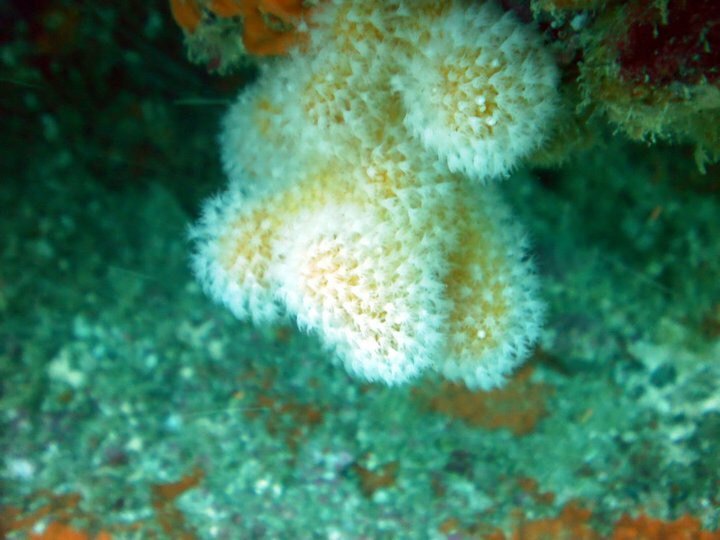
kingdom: Animalia
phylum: Cnidaria
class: Anthozoa
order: Malacalcyonacea
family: Alcyoniidae
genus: Kotatea
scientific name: Kotatea aurantiaca
